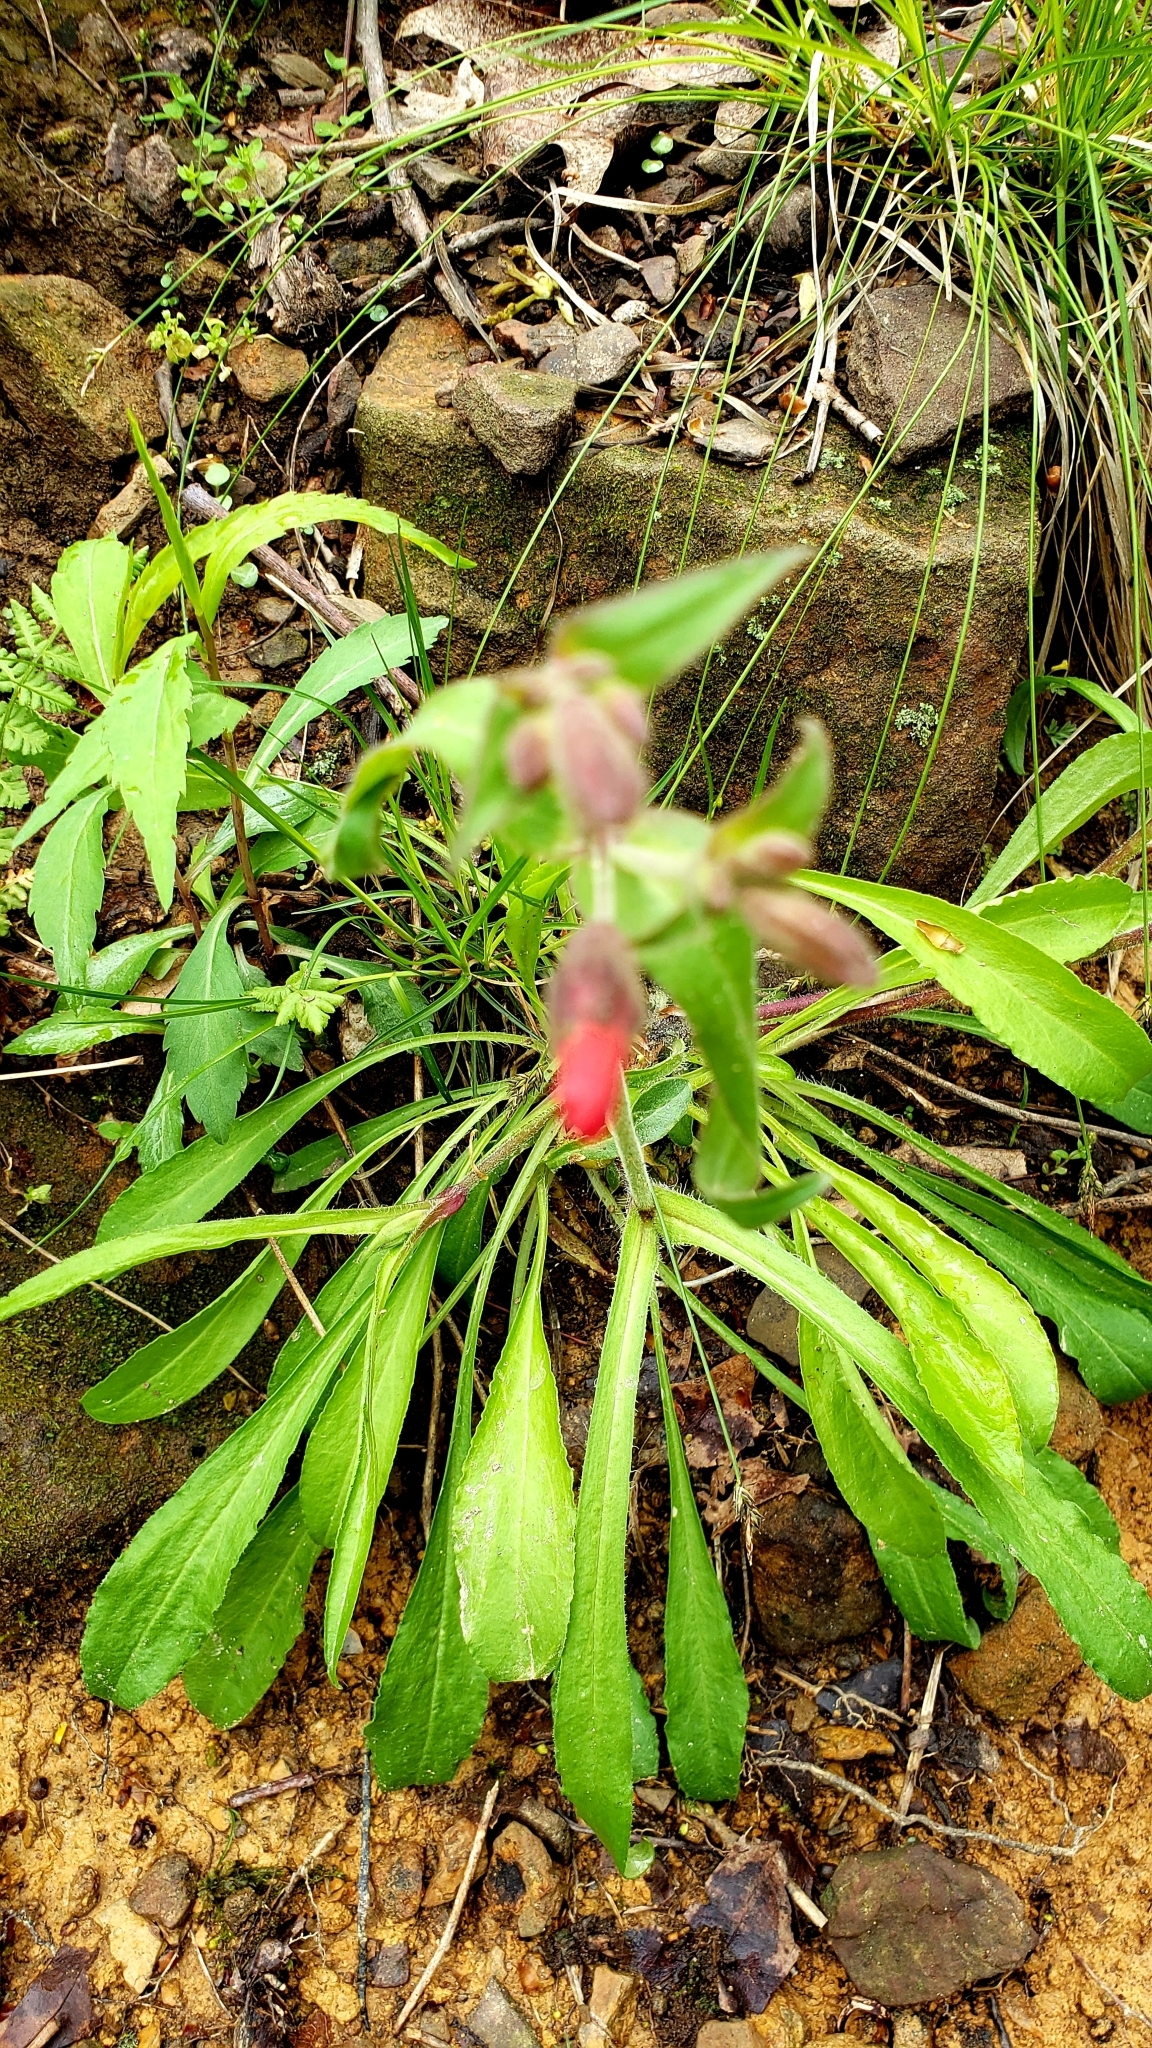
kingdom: Plantae
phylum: Tracheophyta
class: Magnoliopsida
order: Caryophyllales
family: Caryophyllaceae
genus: Silene
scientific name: Silene virginica
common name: Fire-pink
